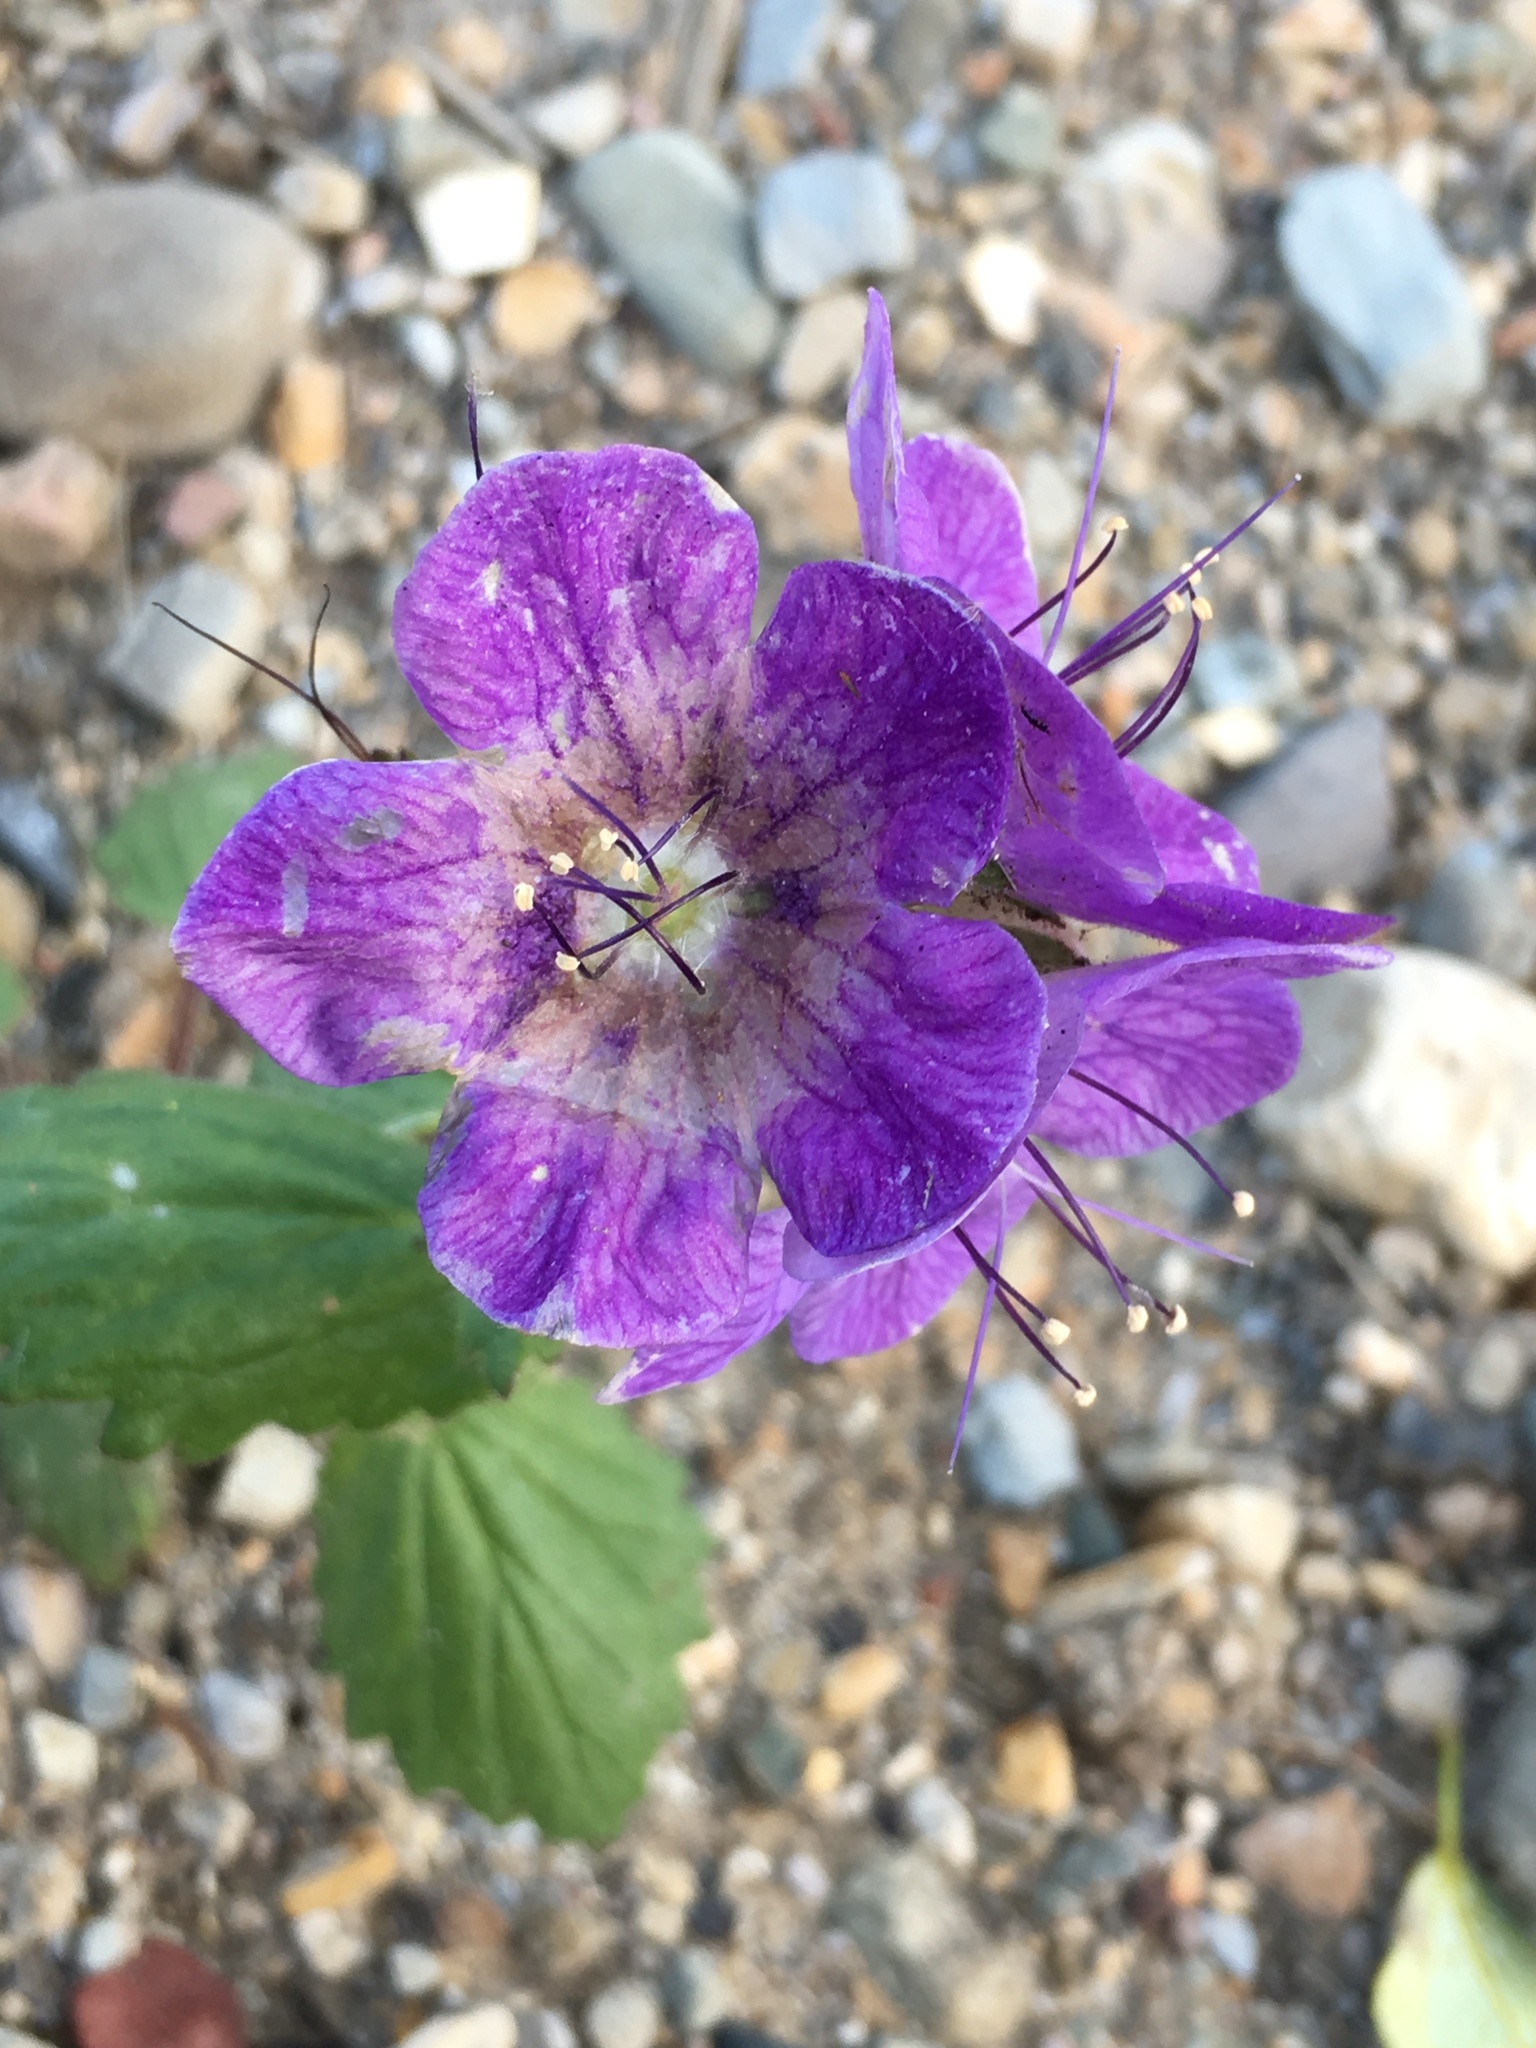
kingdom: Plantae
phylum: Tracheophyta
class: Magnoliopsida
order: Boraginales
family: Hydrophyllaceae
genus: Phacelia
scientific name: Phacelia grandiflora
